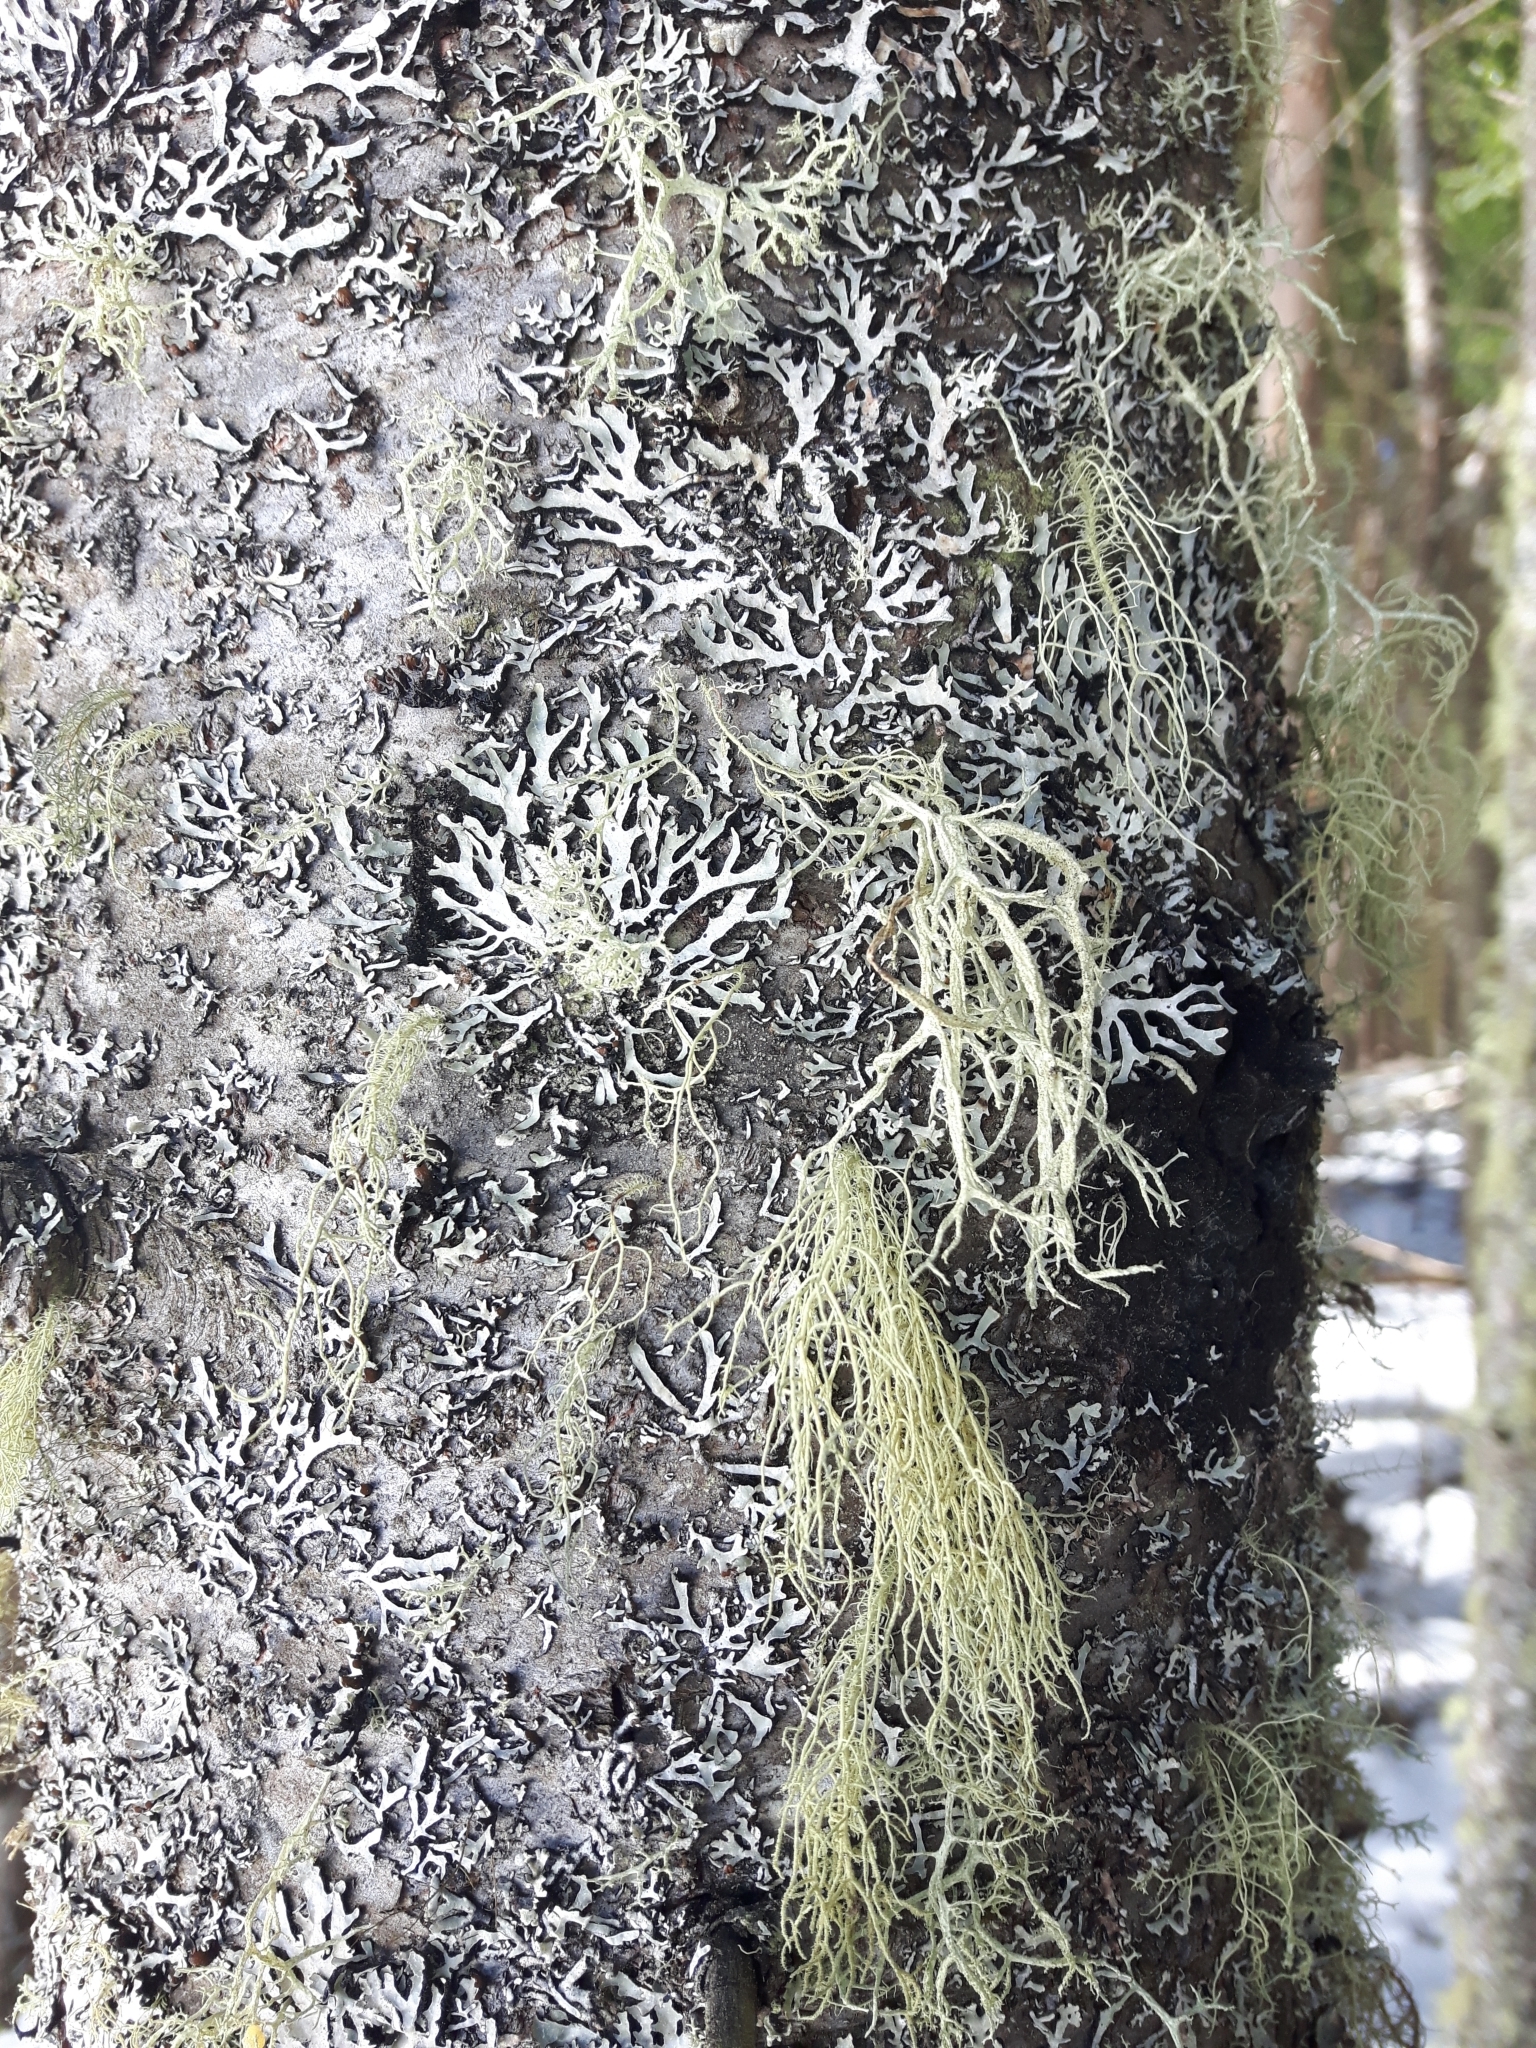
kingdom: Fungi
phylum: Ascomycota
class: Lecanoromycetes
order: Lecanorales
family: Parmeliaceae
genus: Evernia
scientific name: Evernia mesomorpha
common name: Boreal oak moss lichen
